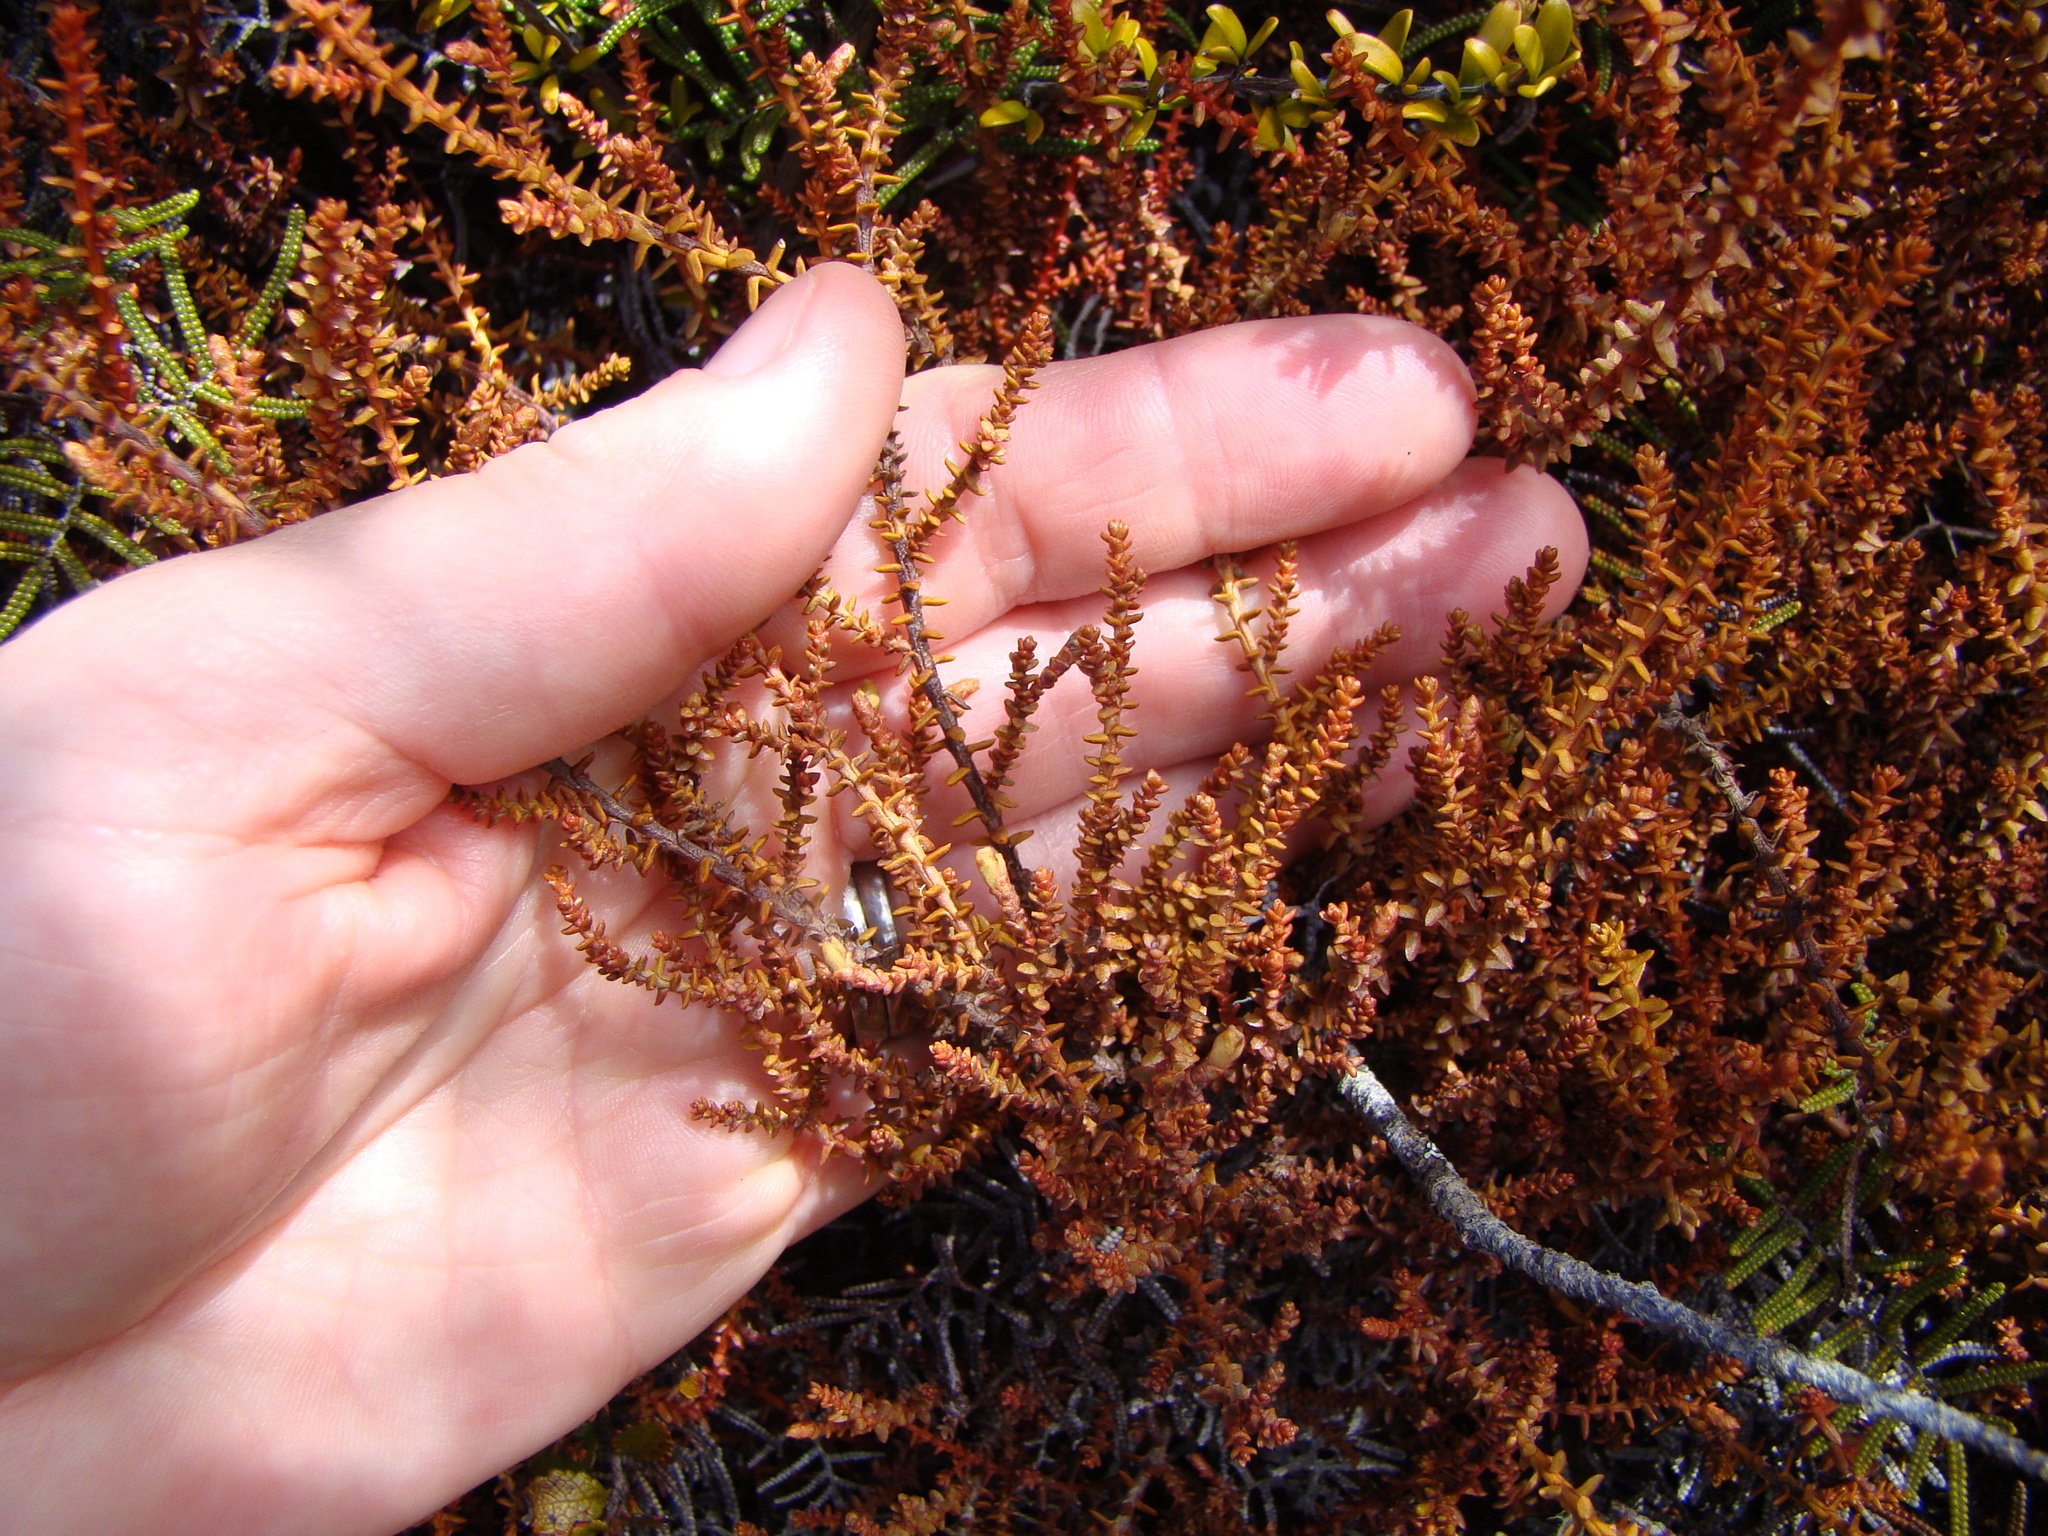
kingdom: Plantae
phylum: Tracheophyta
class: Pinopsida
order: Pinales
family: Podocarpaceae
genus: Lepidothamnus
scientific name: Lepidothamnus laxifolius
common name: Pygmy pine
